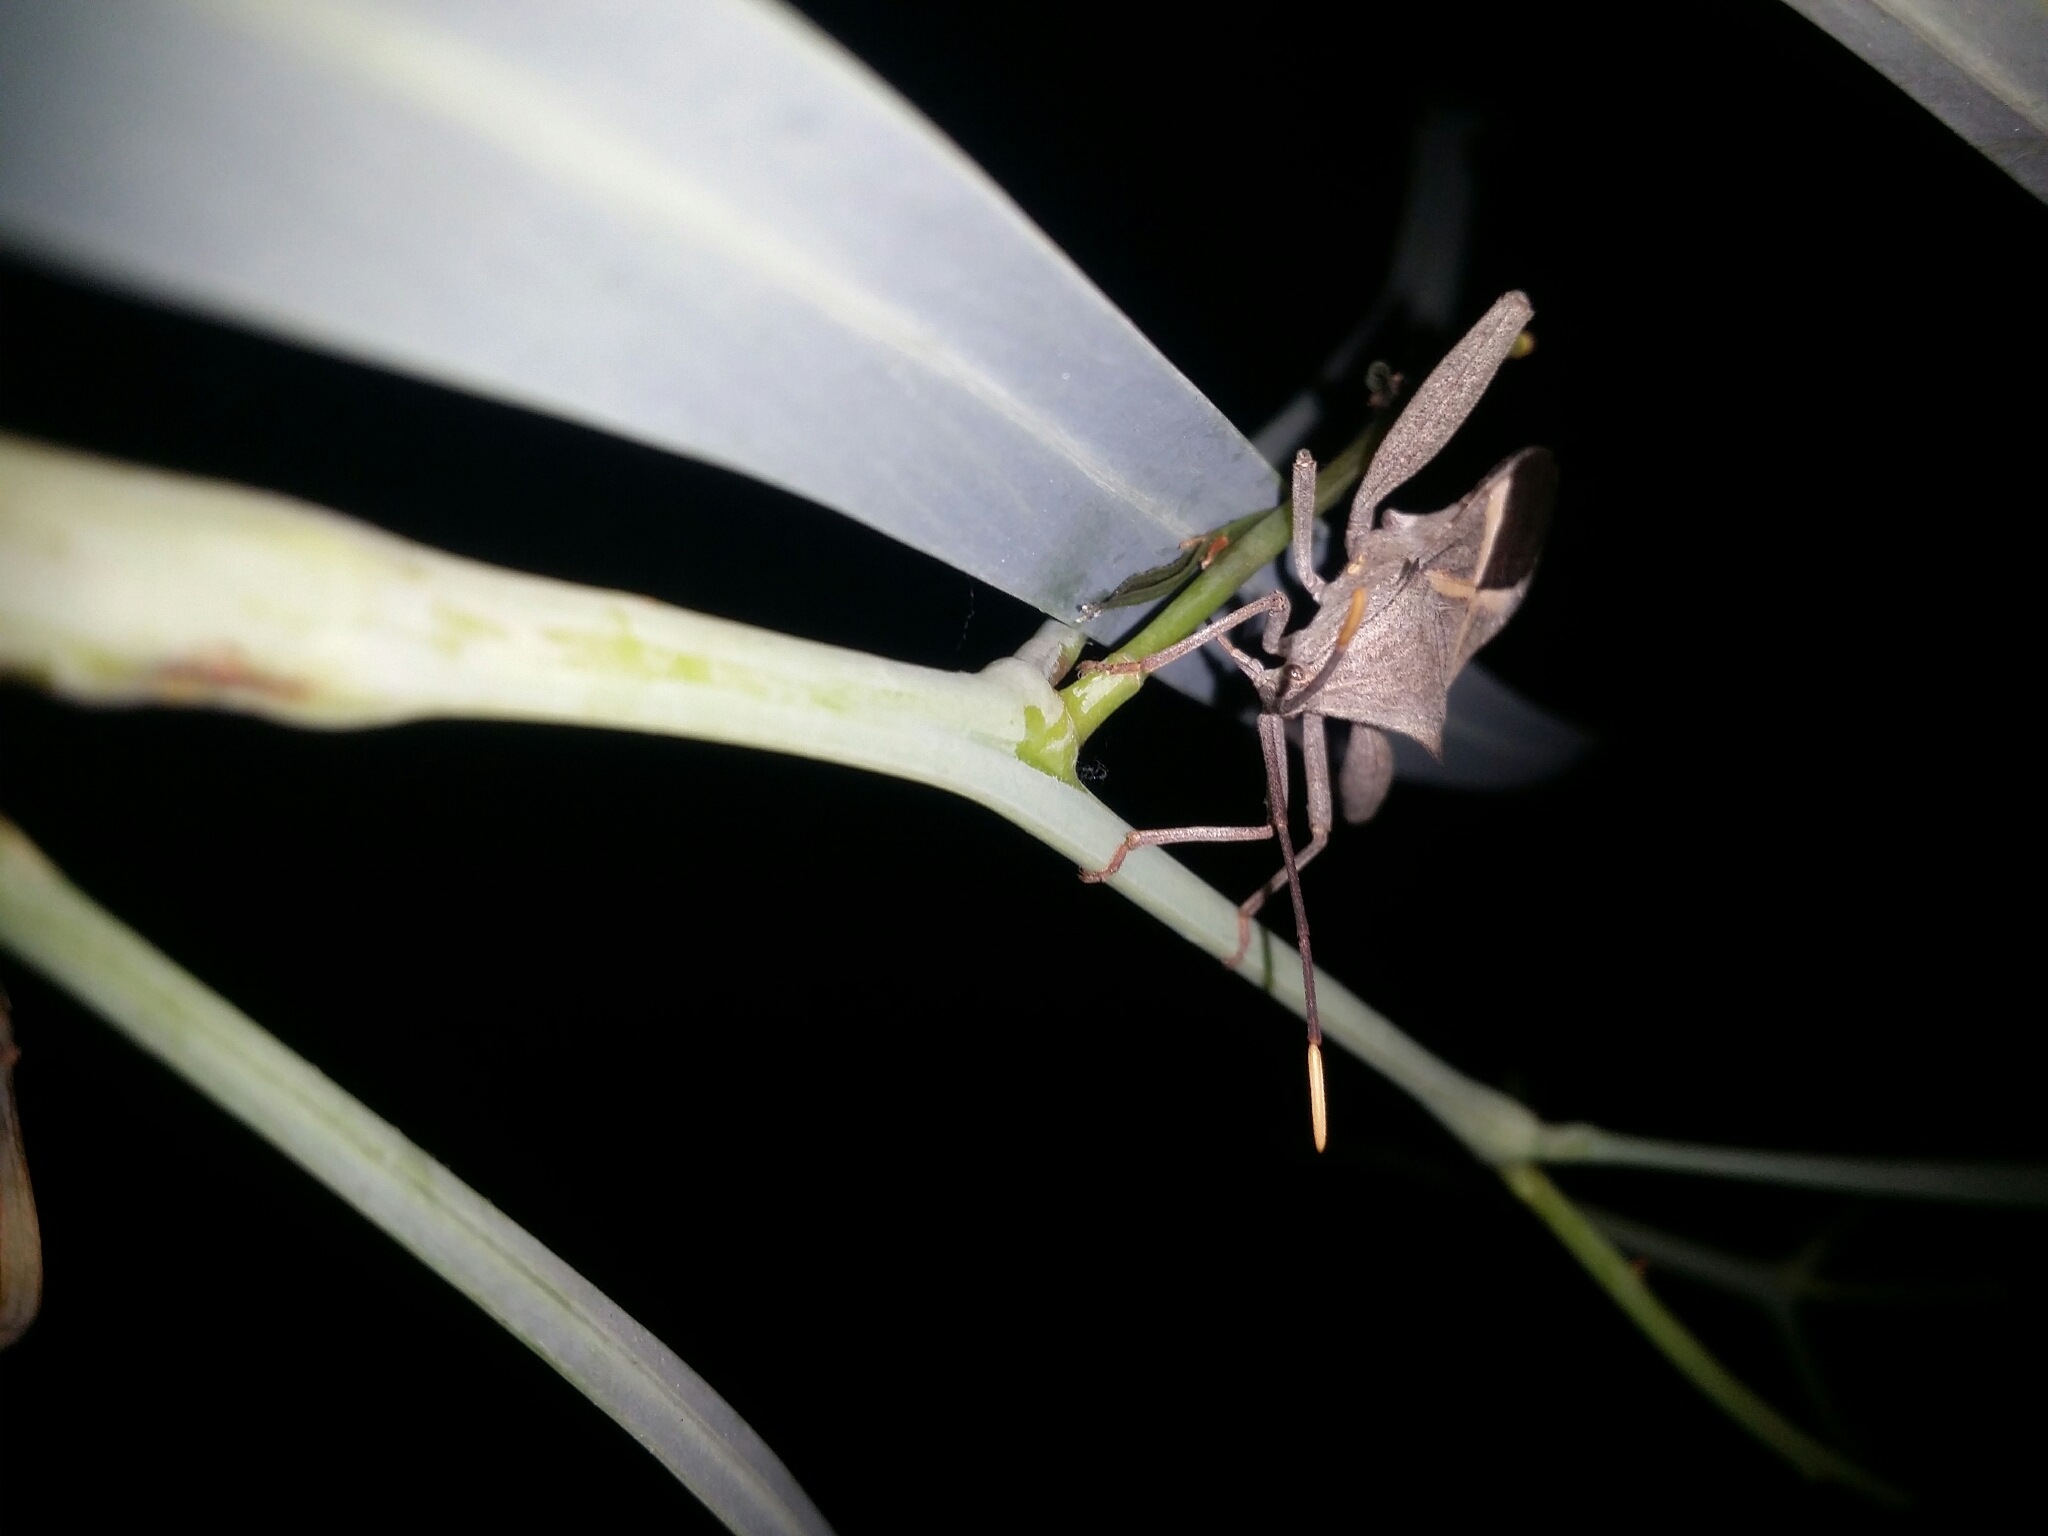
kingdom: Animalia
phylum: Arthropoda
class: Insecta
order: Hemiptera
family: Coreidae
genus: Mictis
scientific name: Mictis profana
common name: Crusader bug
